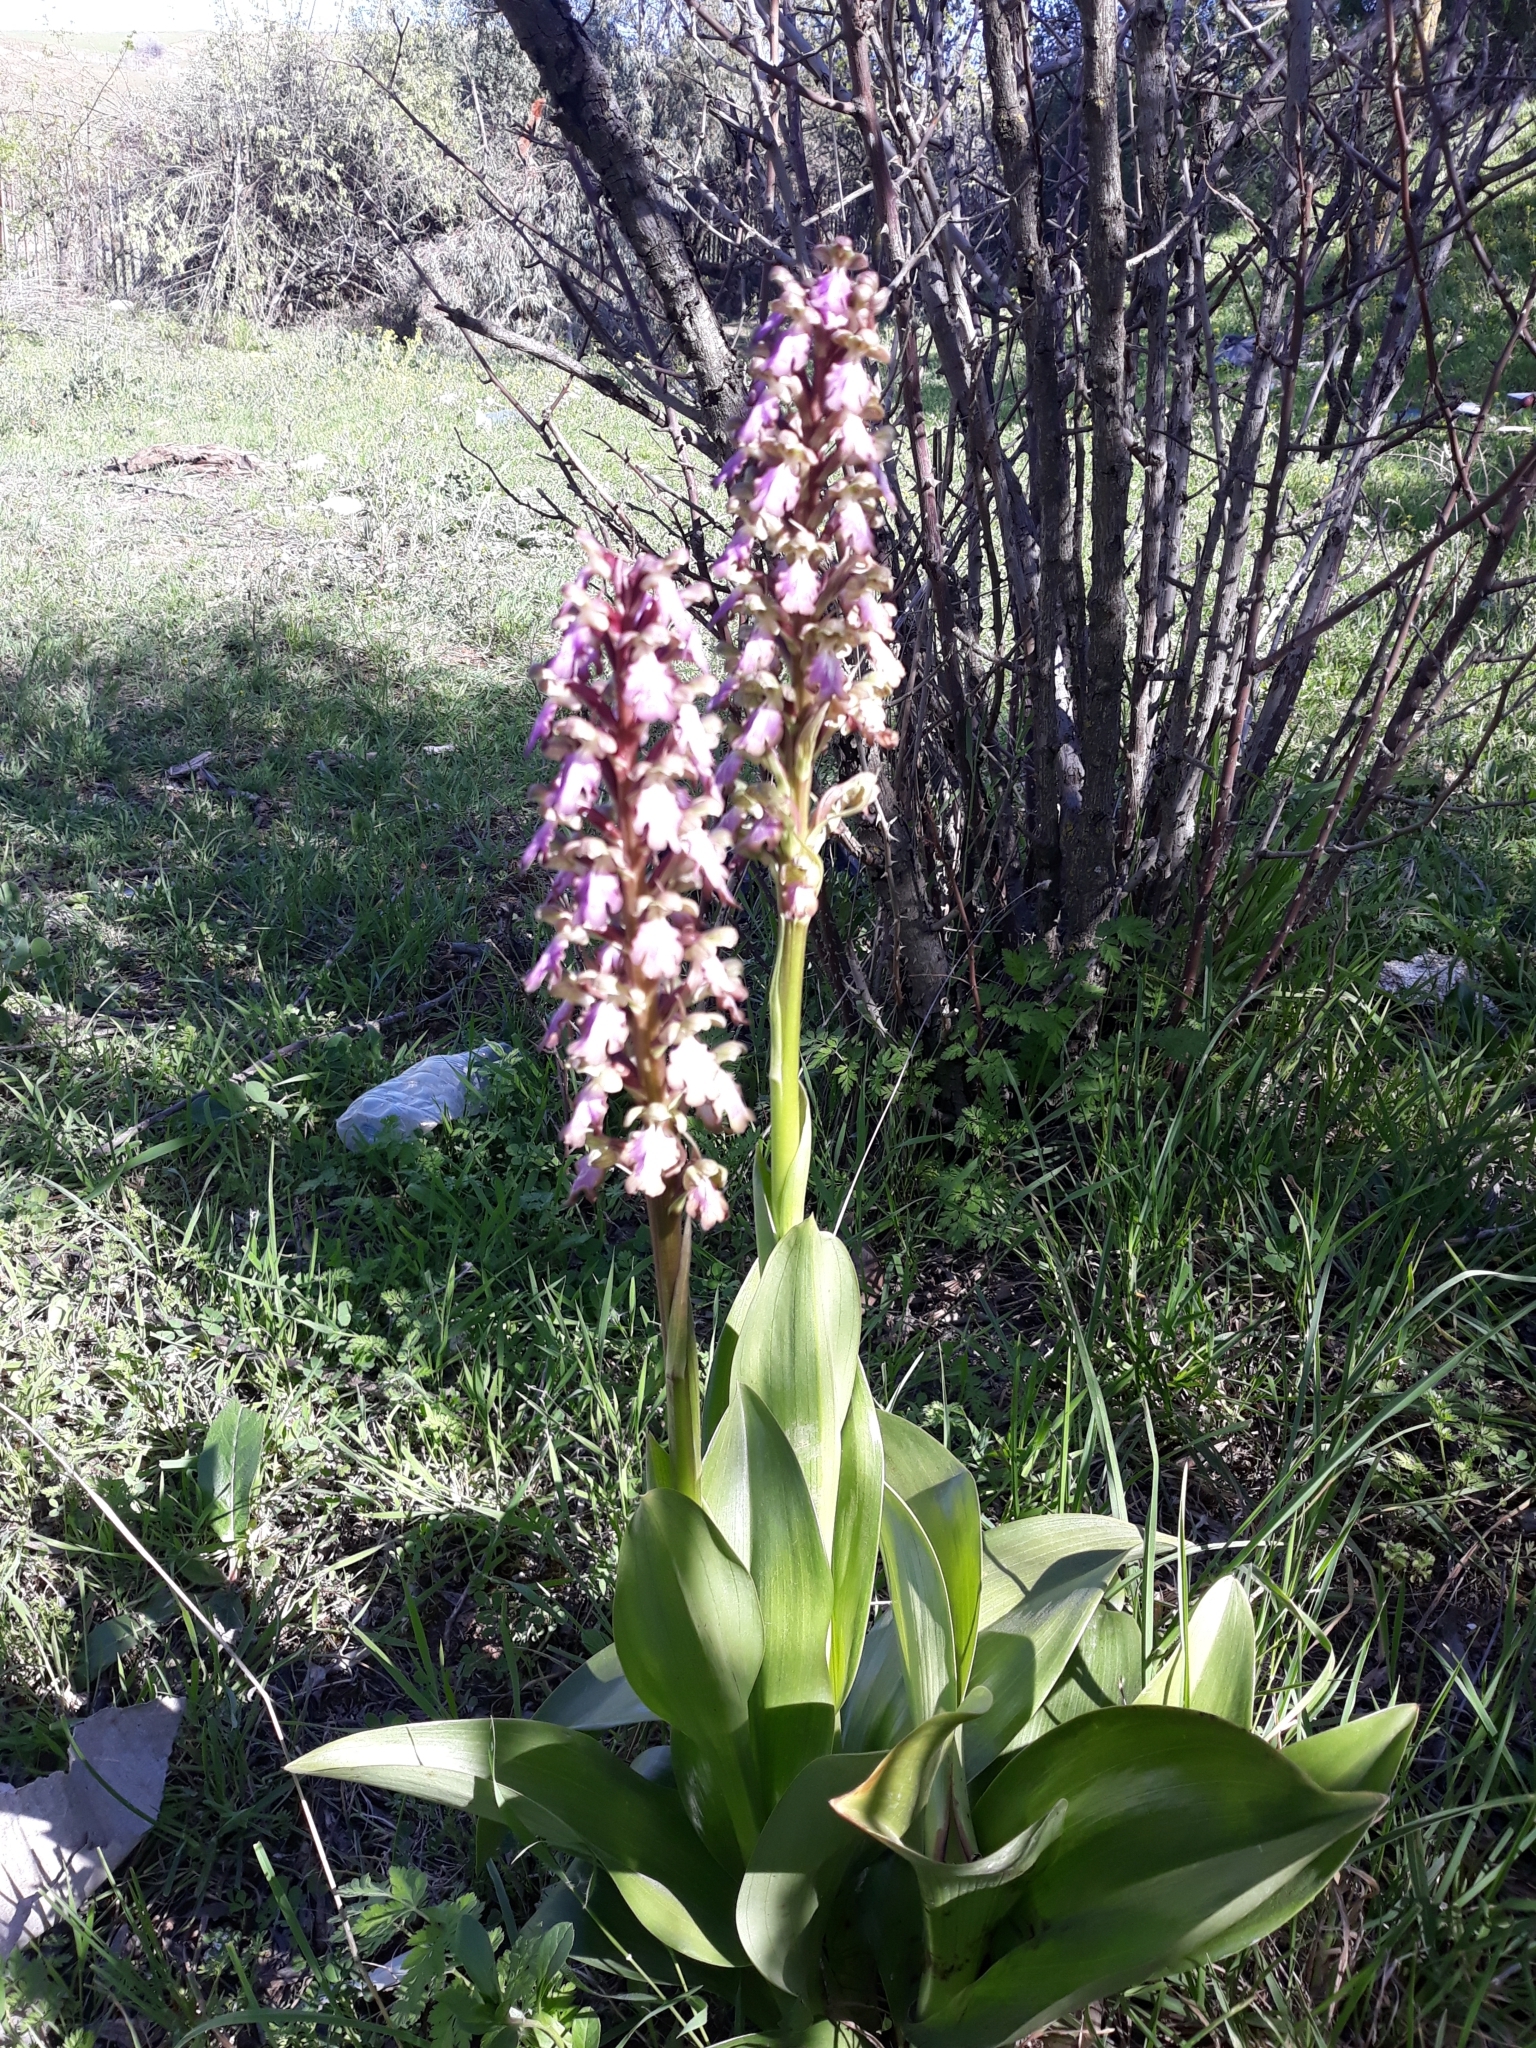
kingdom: Plantae
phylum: Tracheophyta
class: Liliopsida
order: Asparagales
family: Orchidaceae
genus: Himantoglossum
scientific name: Himantoglossum robertianum
